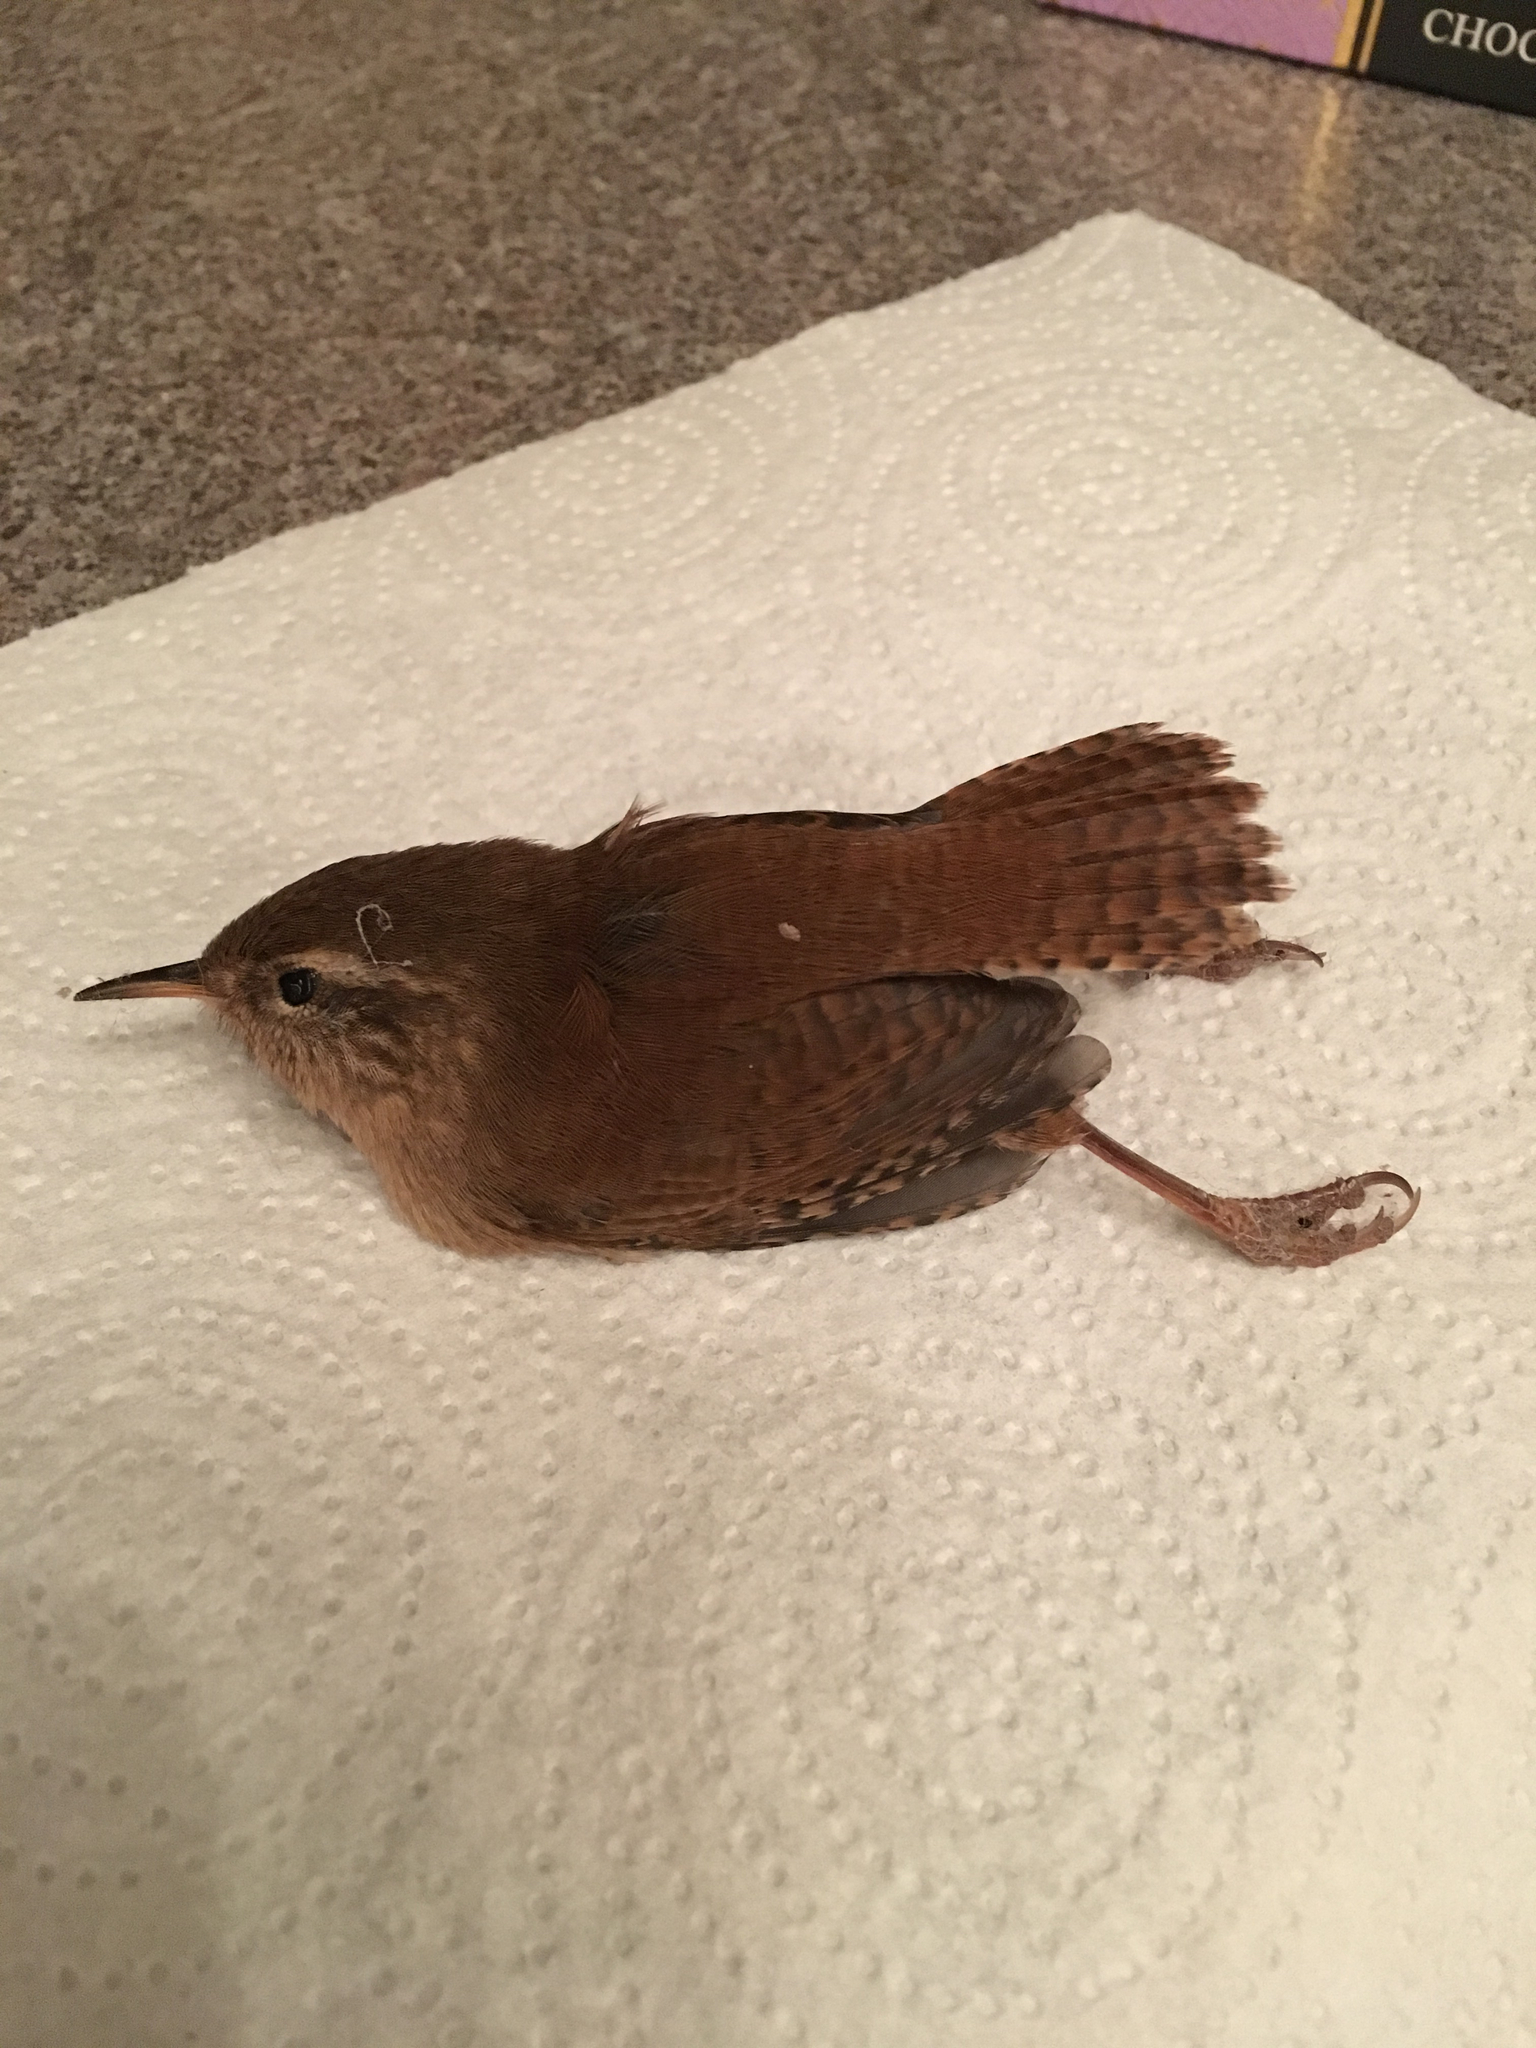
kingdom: Animalia
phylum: Chordata
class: Aves
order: Passeriformes
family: Troglodytidae
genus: Troglodytes
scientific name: Troglodytes troglodytes
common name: Eurasian wren
